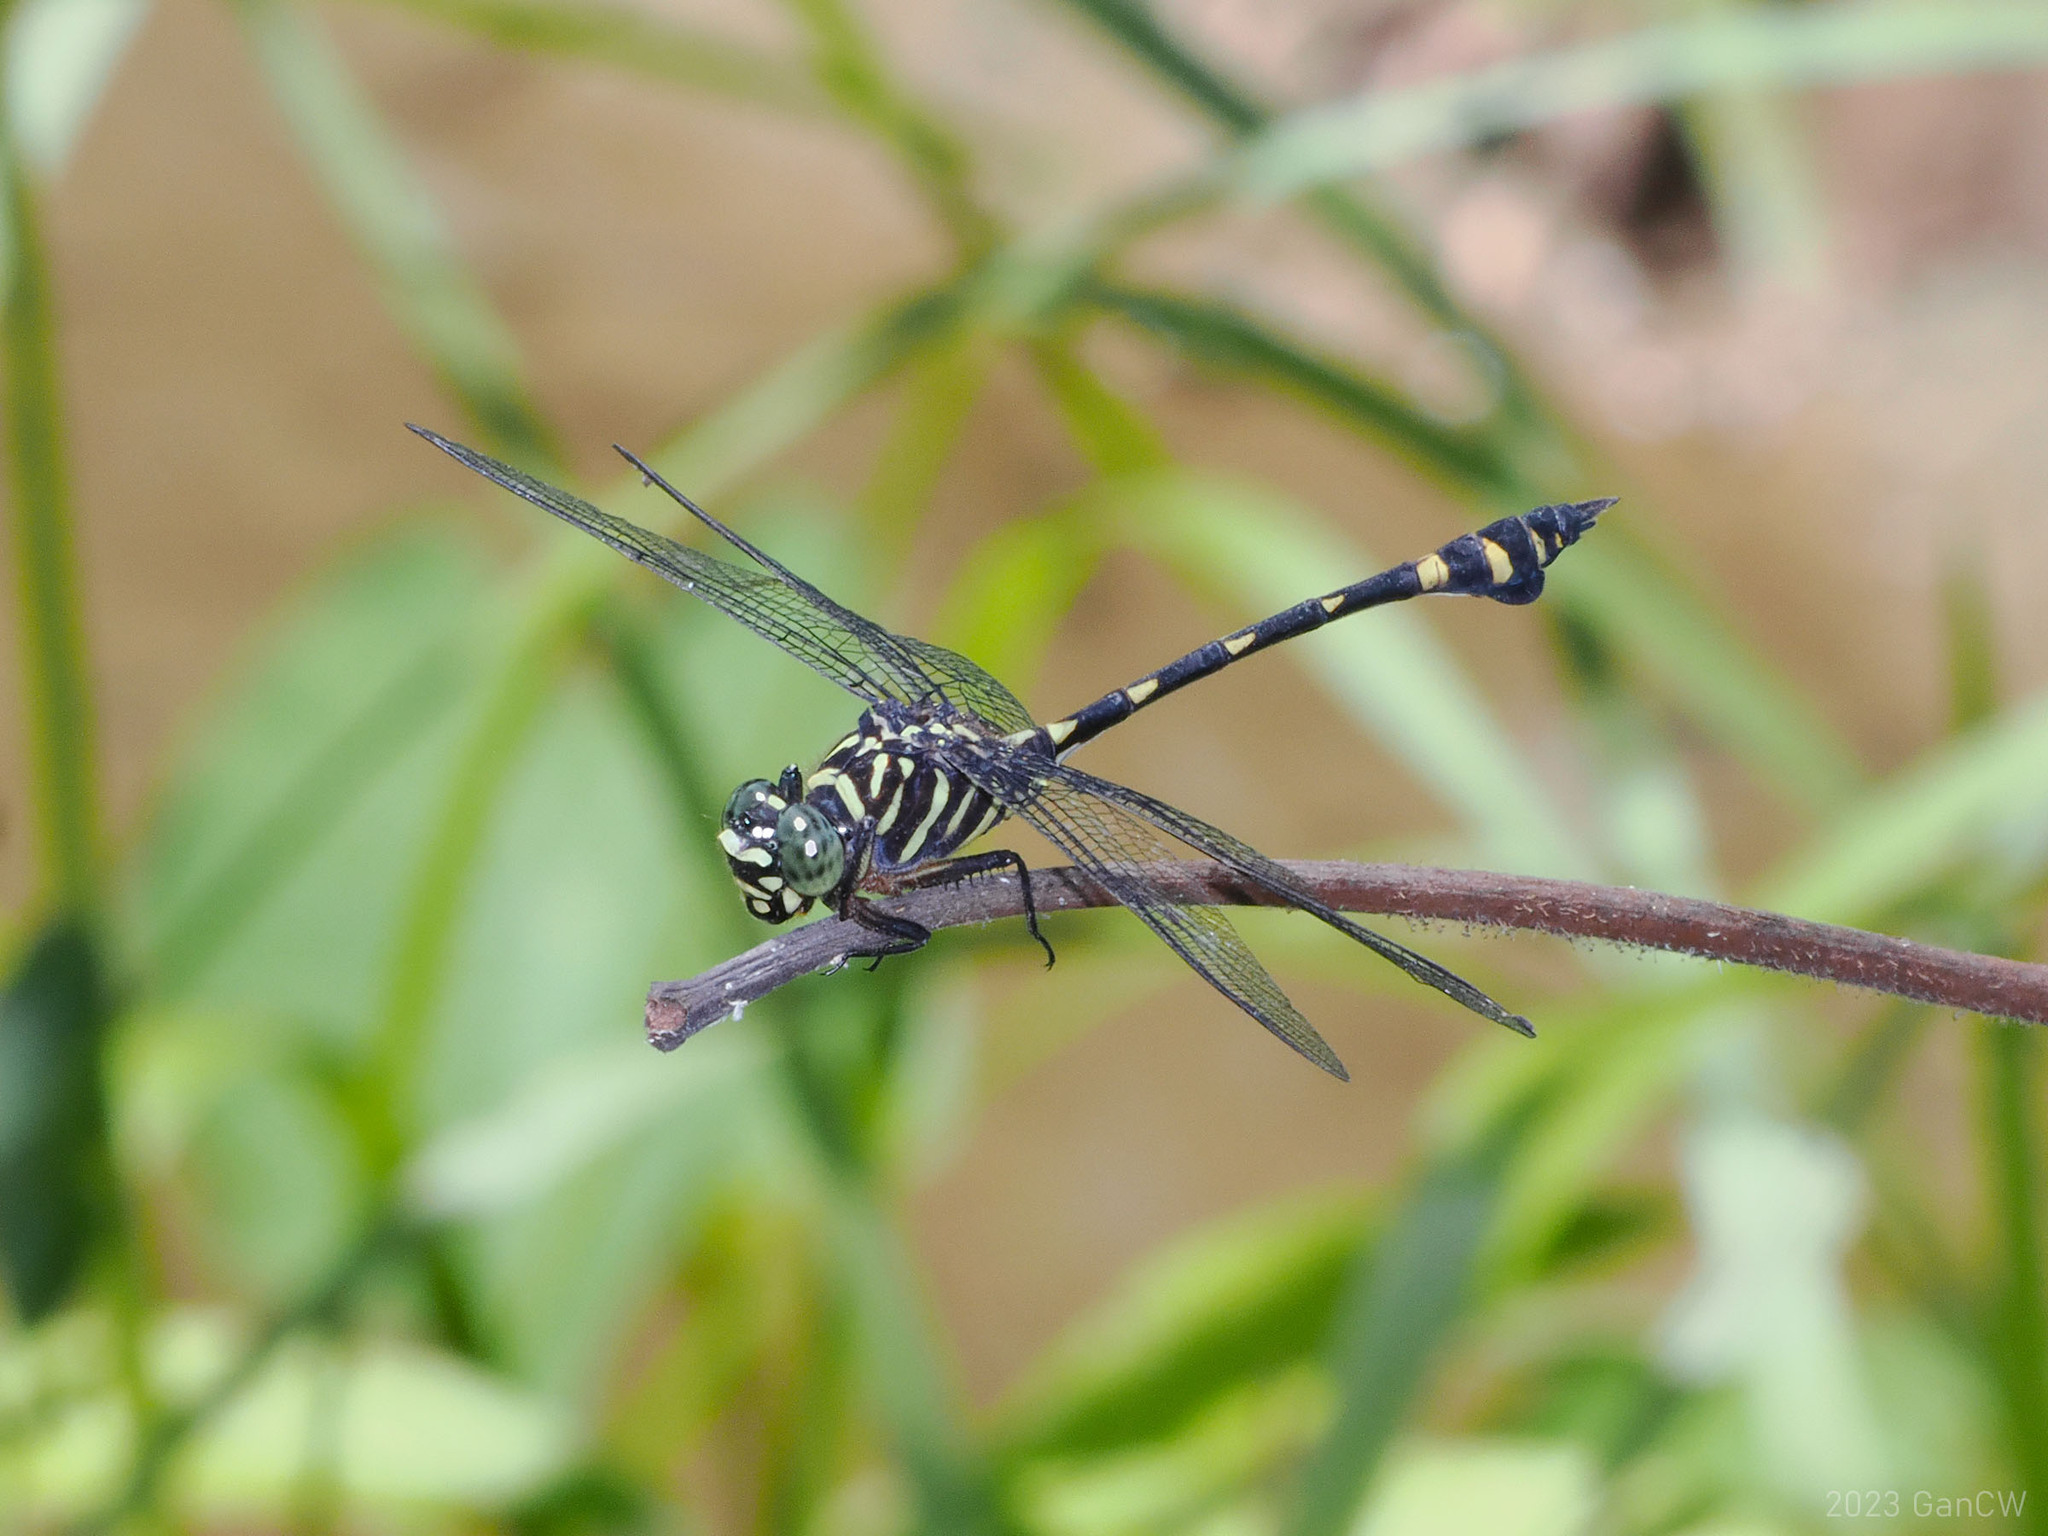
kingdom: Animalia
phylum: Arthropoda
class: Insecta
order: Odonata
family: Gomphidae
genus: Ictinogomphus
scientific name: Ictinogomphus lieftincki
